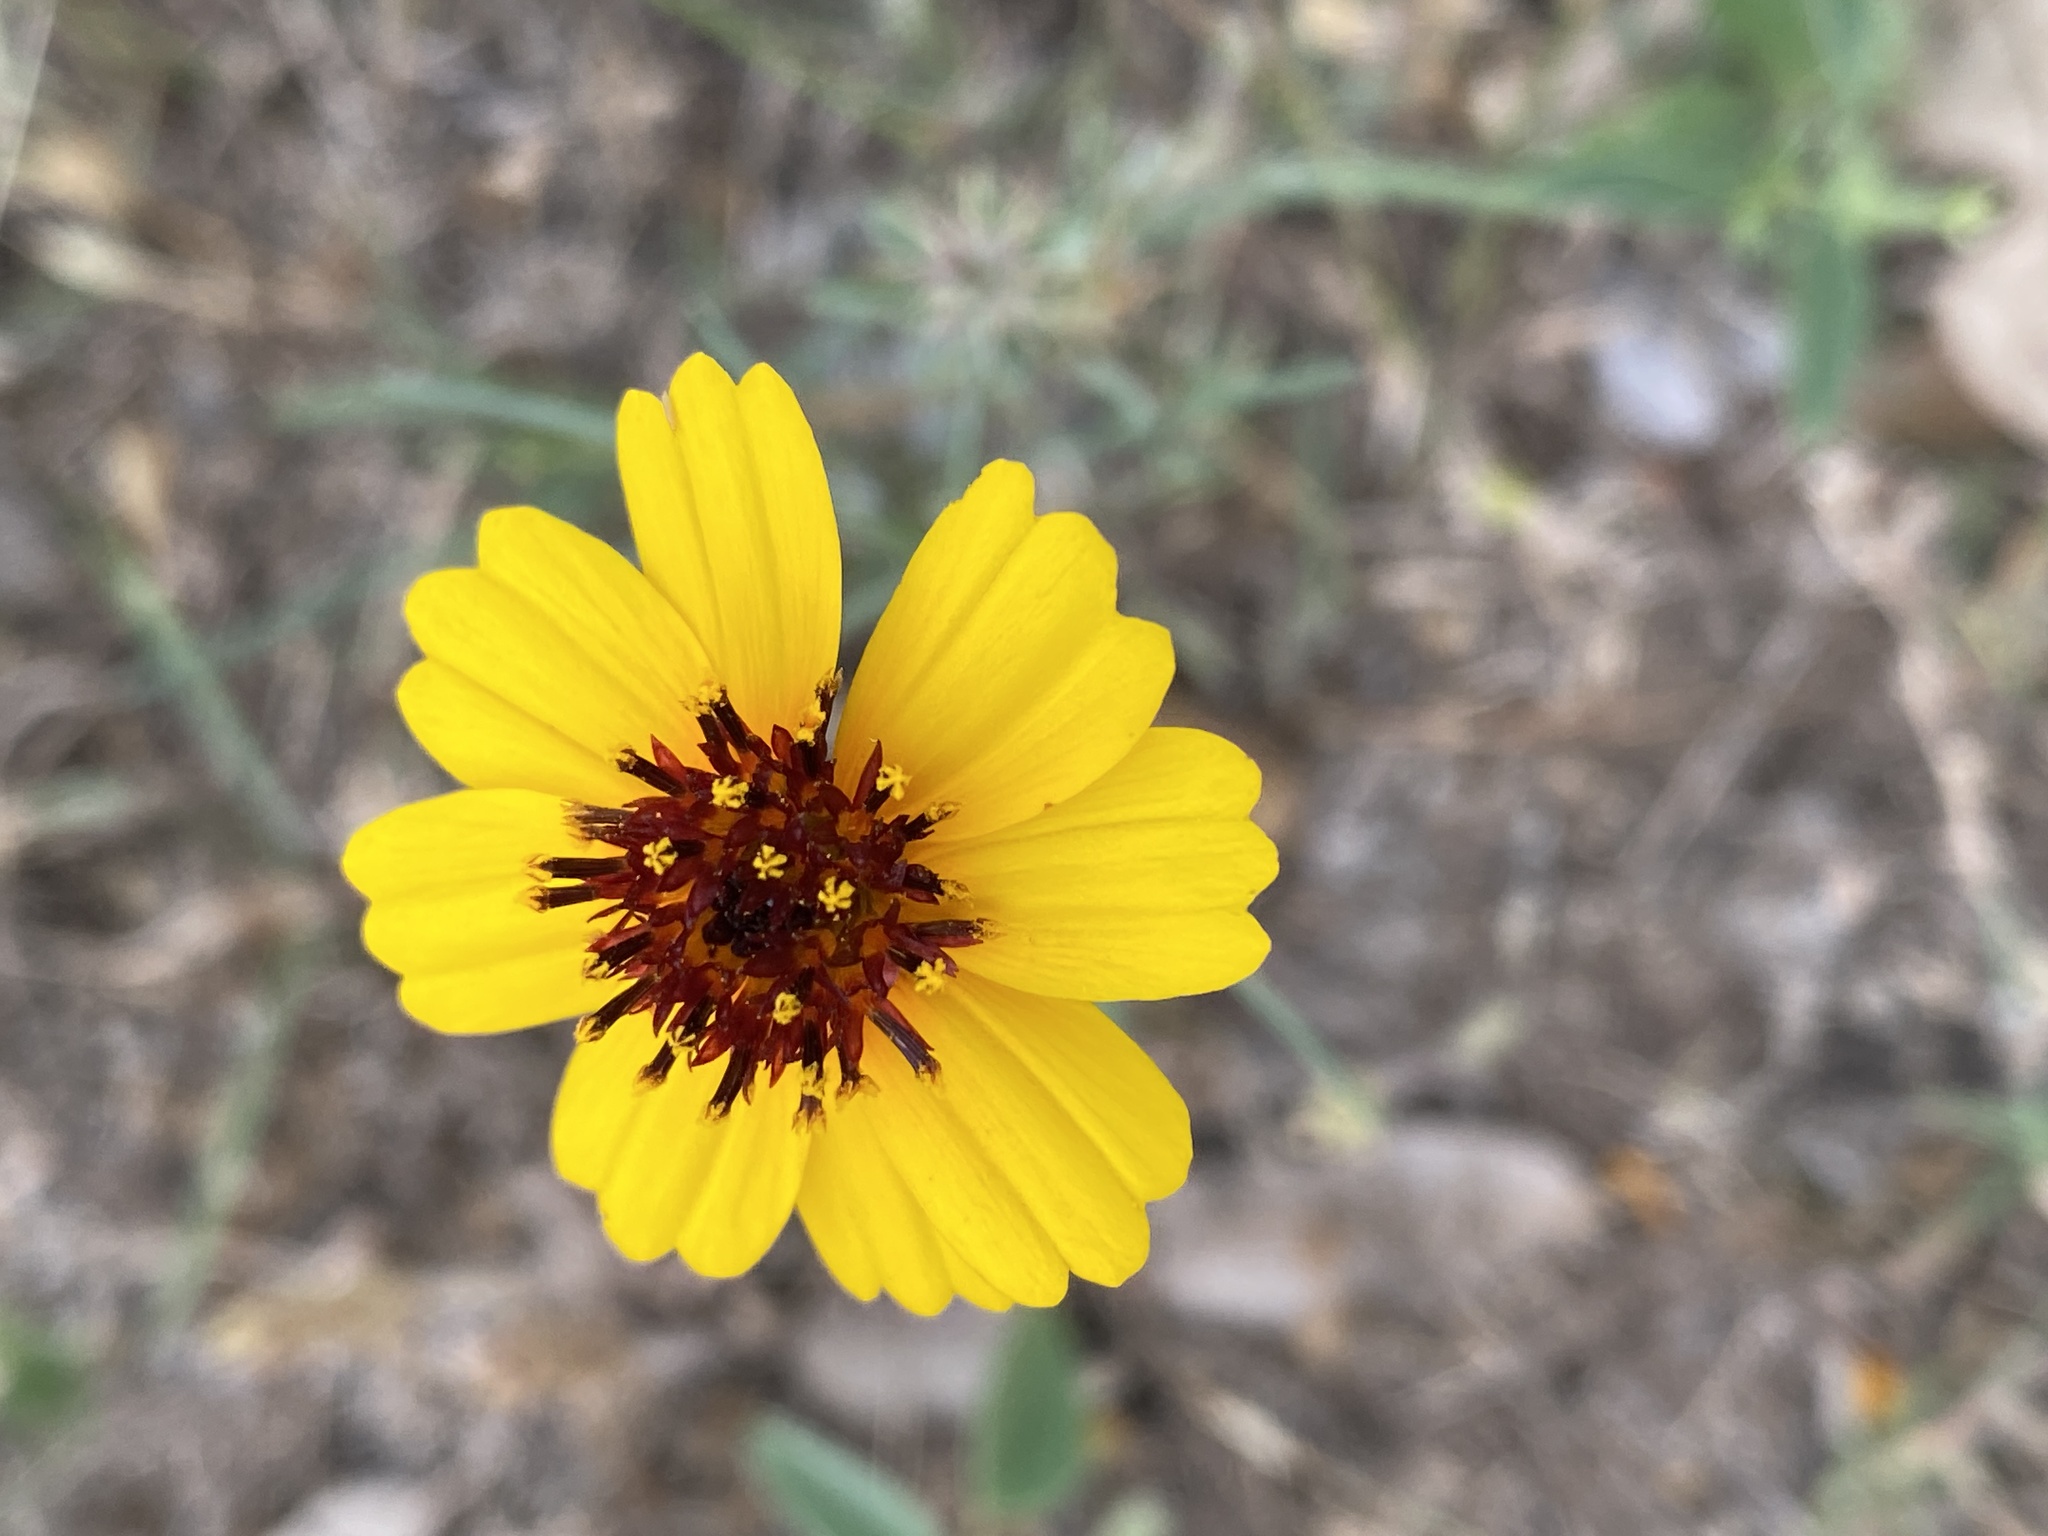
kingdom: Plantae
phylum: Tracheophyta
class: Magnoliopsida
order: Asterales
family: Asteraceae
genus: Thelesperma
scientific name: Thelesperma filifolium
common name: Stiff greenthread
